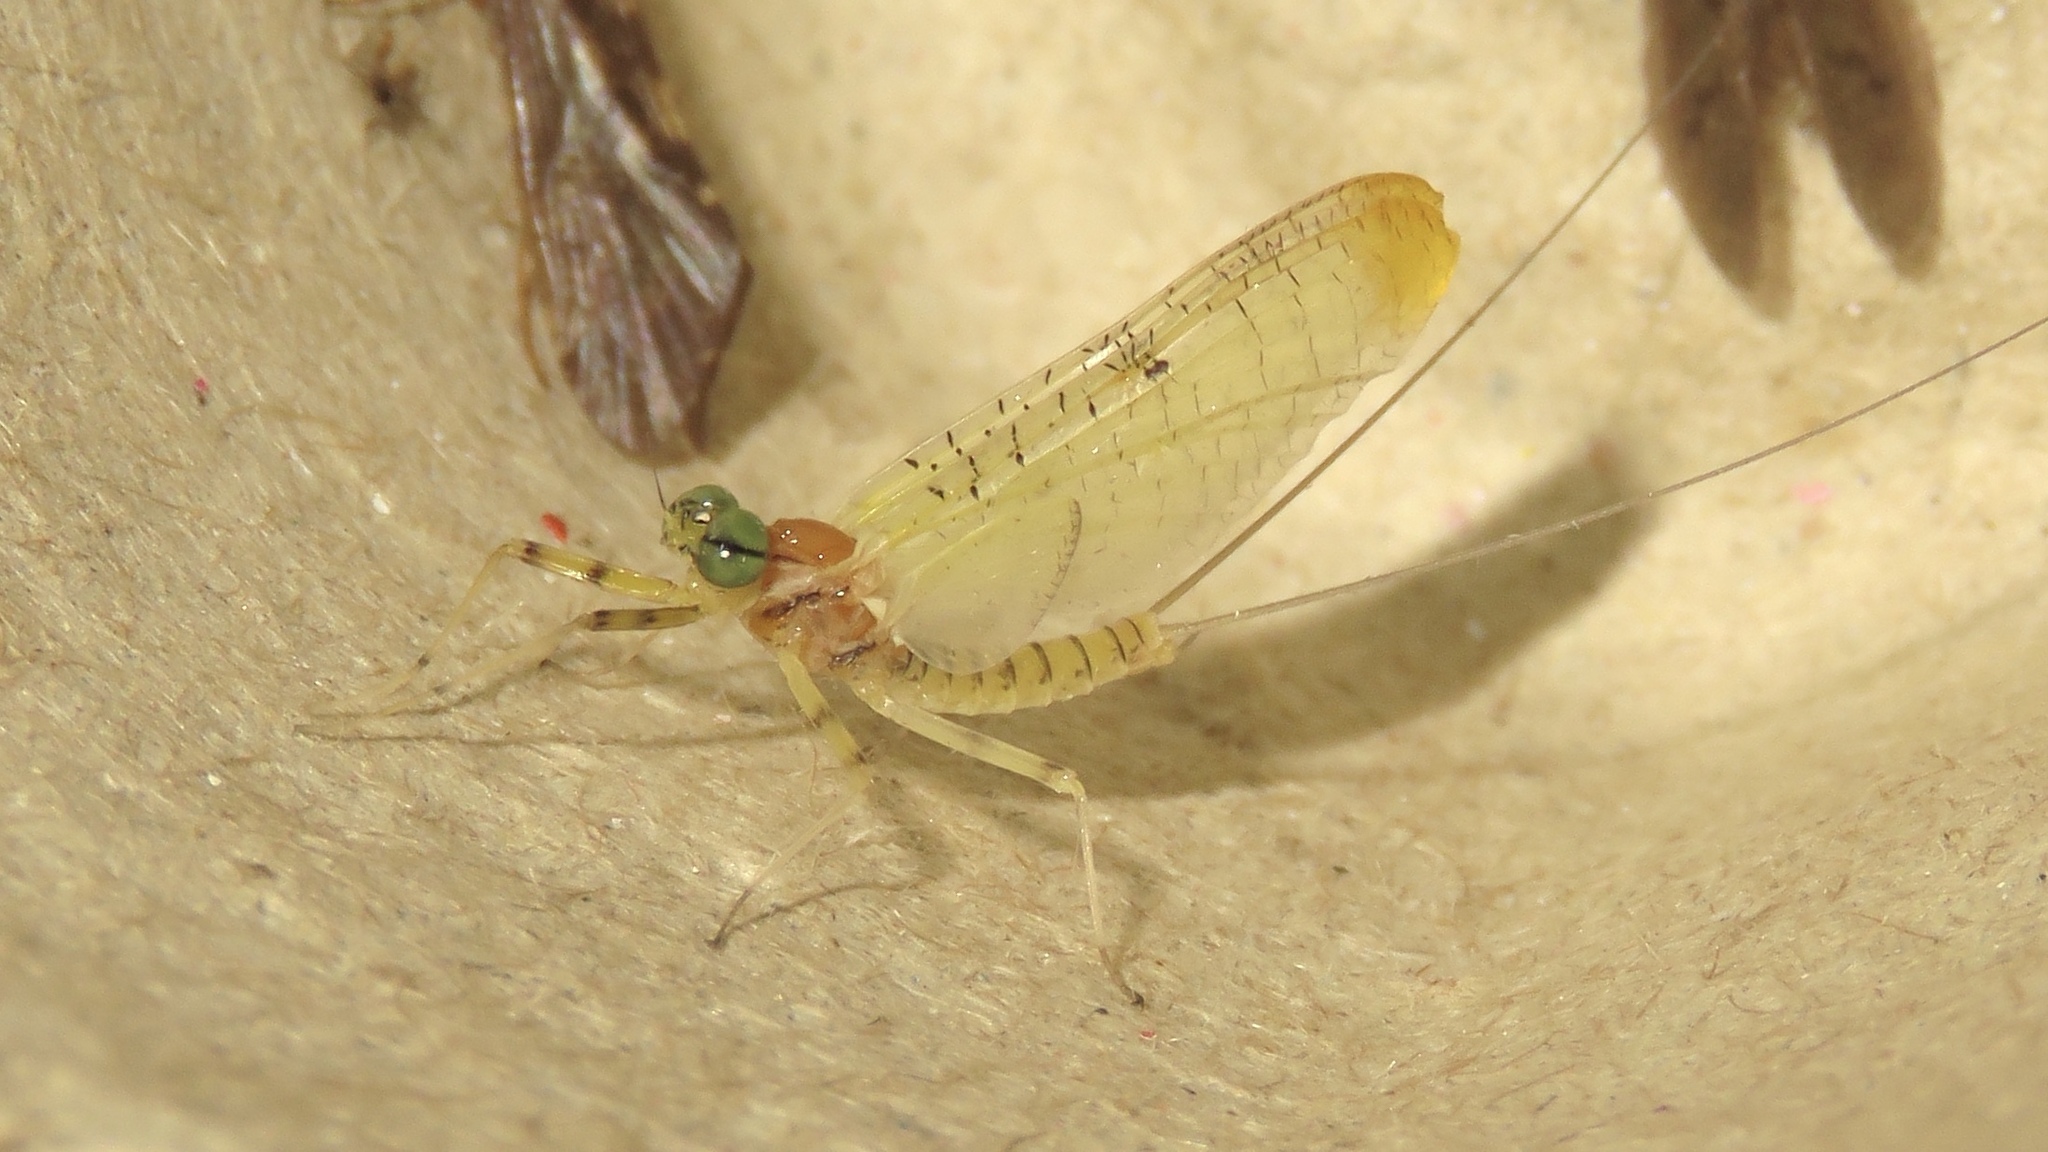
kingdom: Animalia
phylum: Arthropoda
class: Insecta
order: Ephemeroptera
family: Heptageniidae
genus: Stenacron
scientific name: Stenacron interpunctatum
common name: Orange cahill
